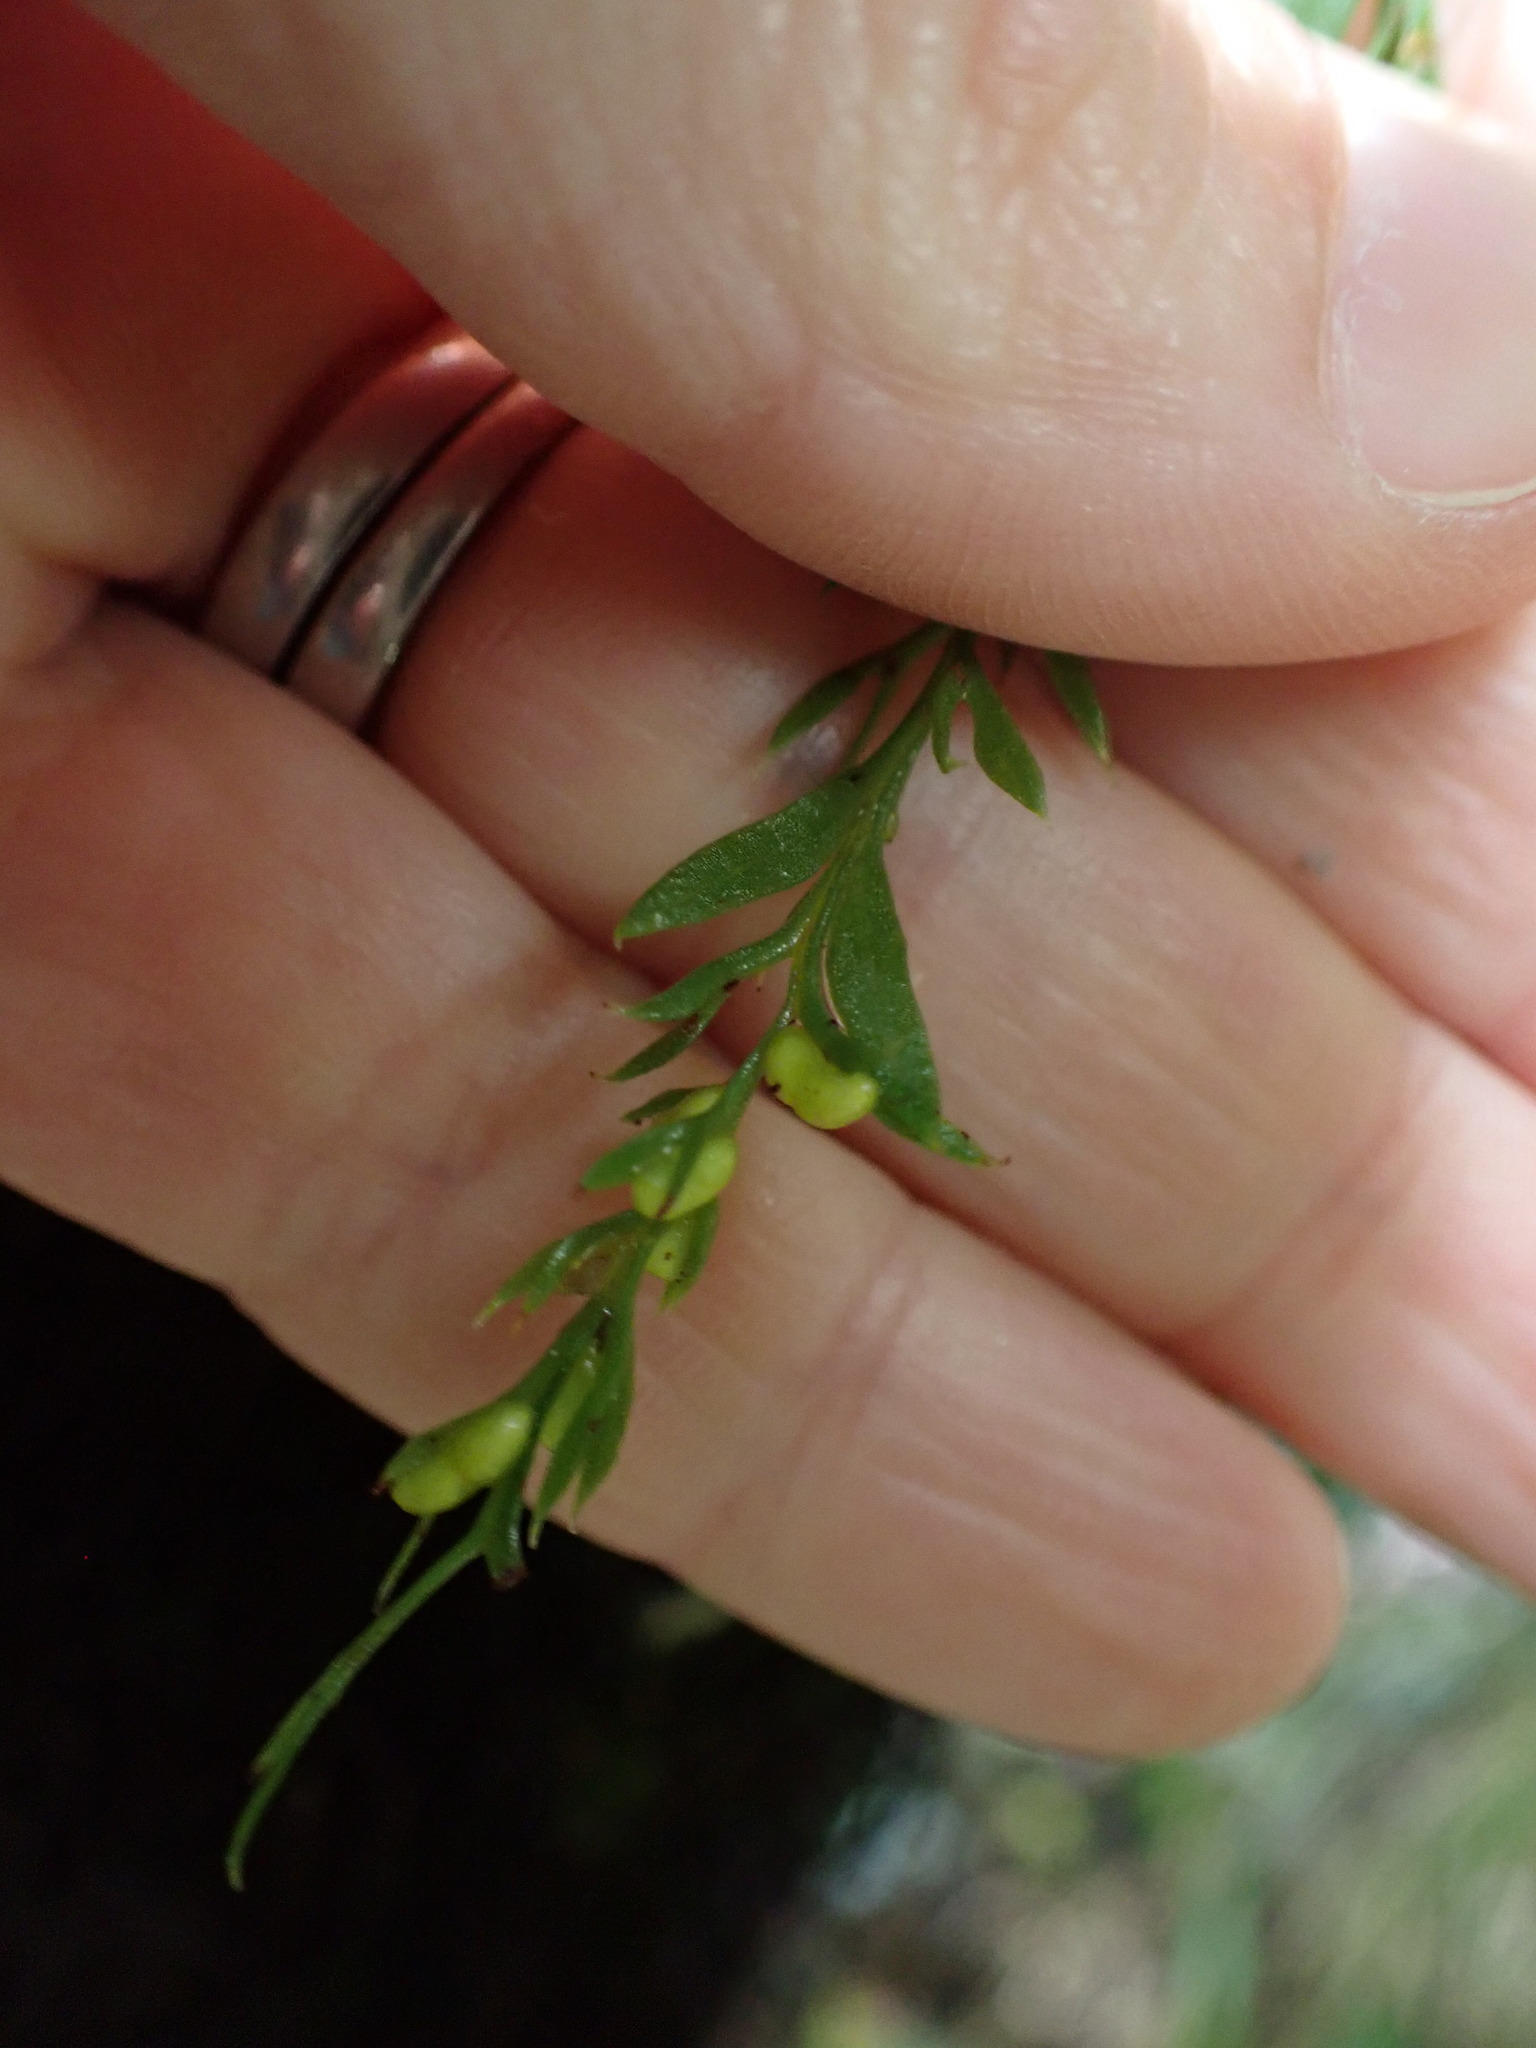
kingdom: Plantae
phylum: Tracheophyta
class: Polypodiopsida
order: Psilotales
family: Psilotaceae
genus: Tmesipteris
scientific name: Tmesipteris elongata
